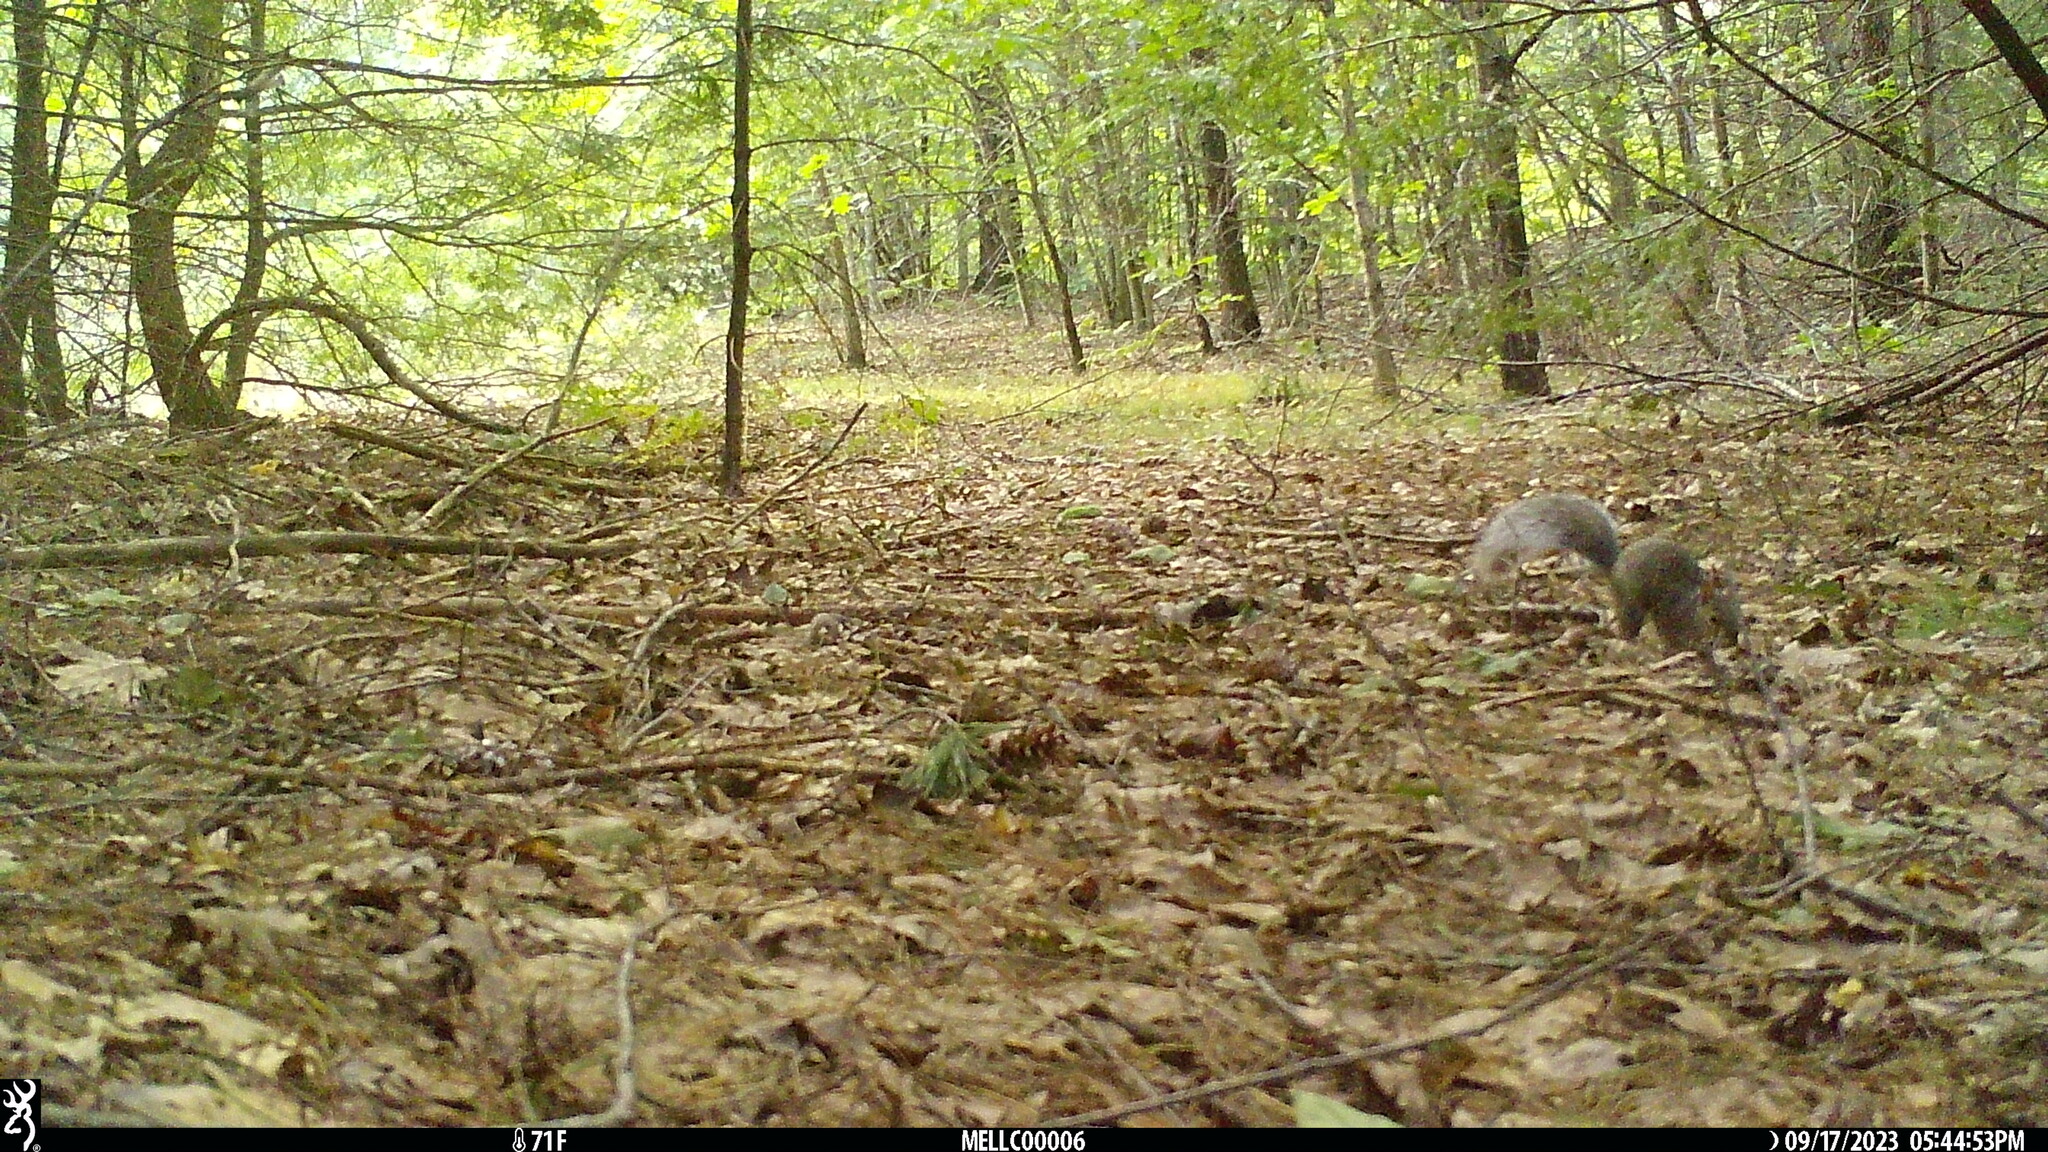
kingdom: Animalia
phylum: Chordata
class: Mammalia
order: Rodentia
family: Sciuridae
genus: Sciurus
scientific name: Sciurus carolinensis
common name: Eastern gray squirrel
